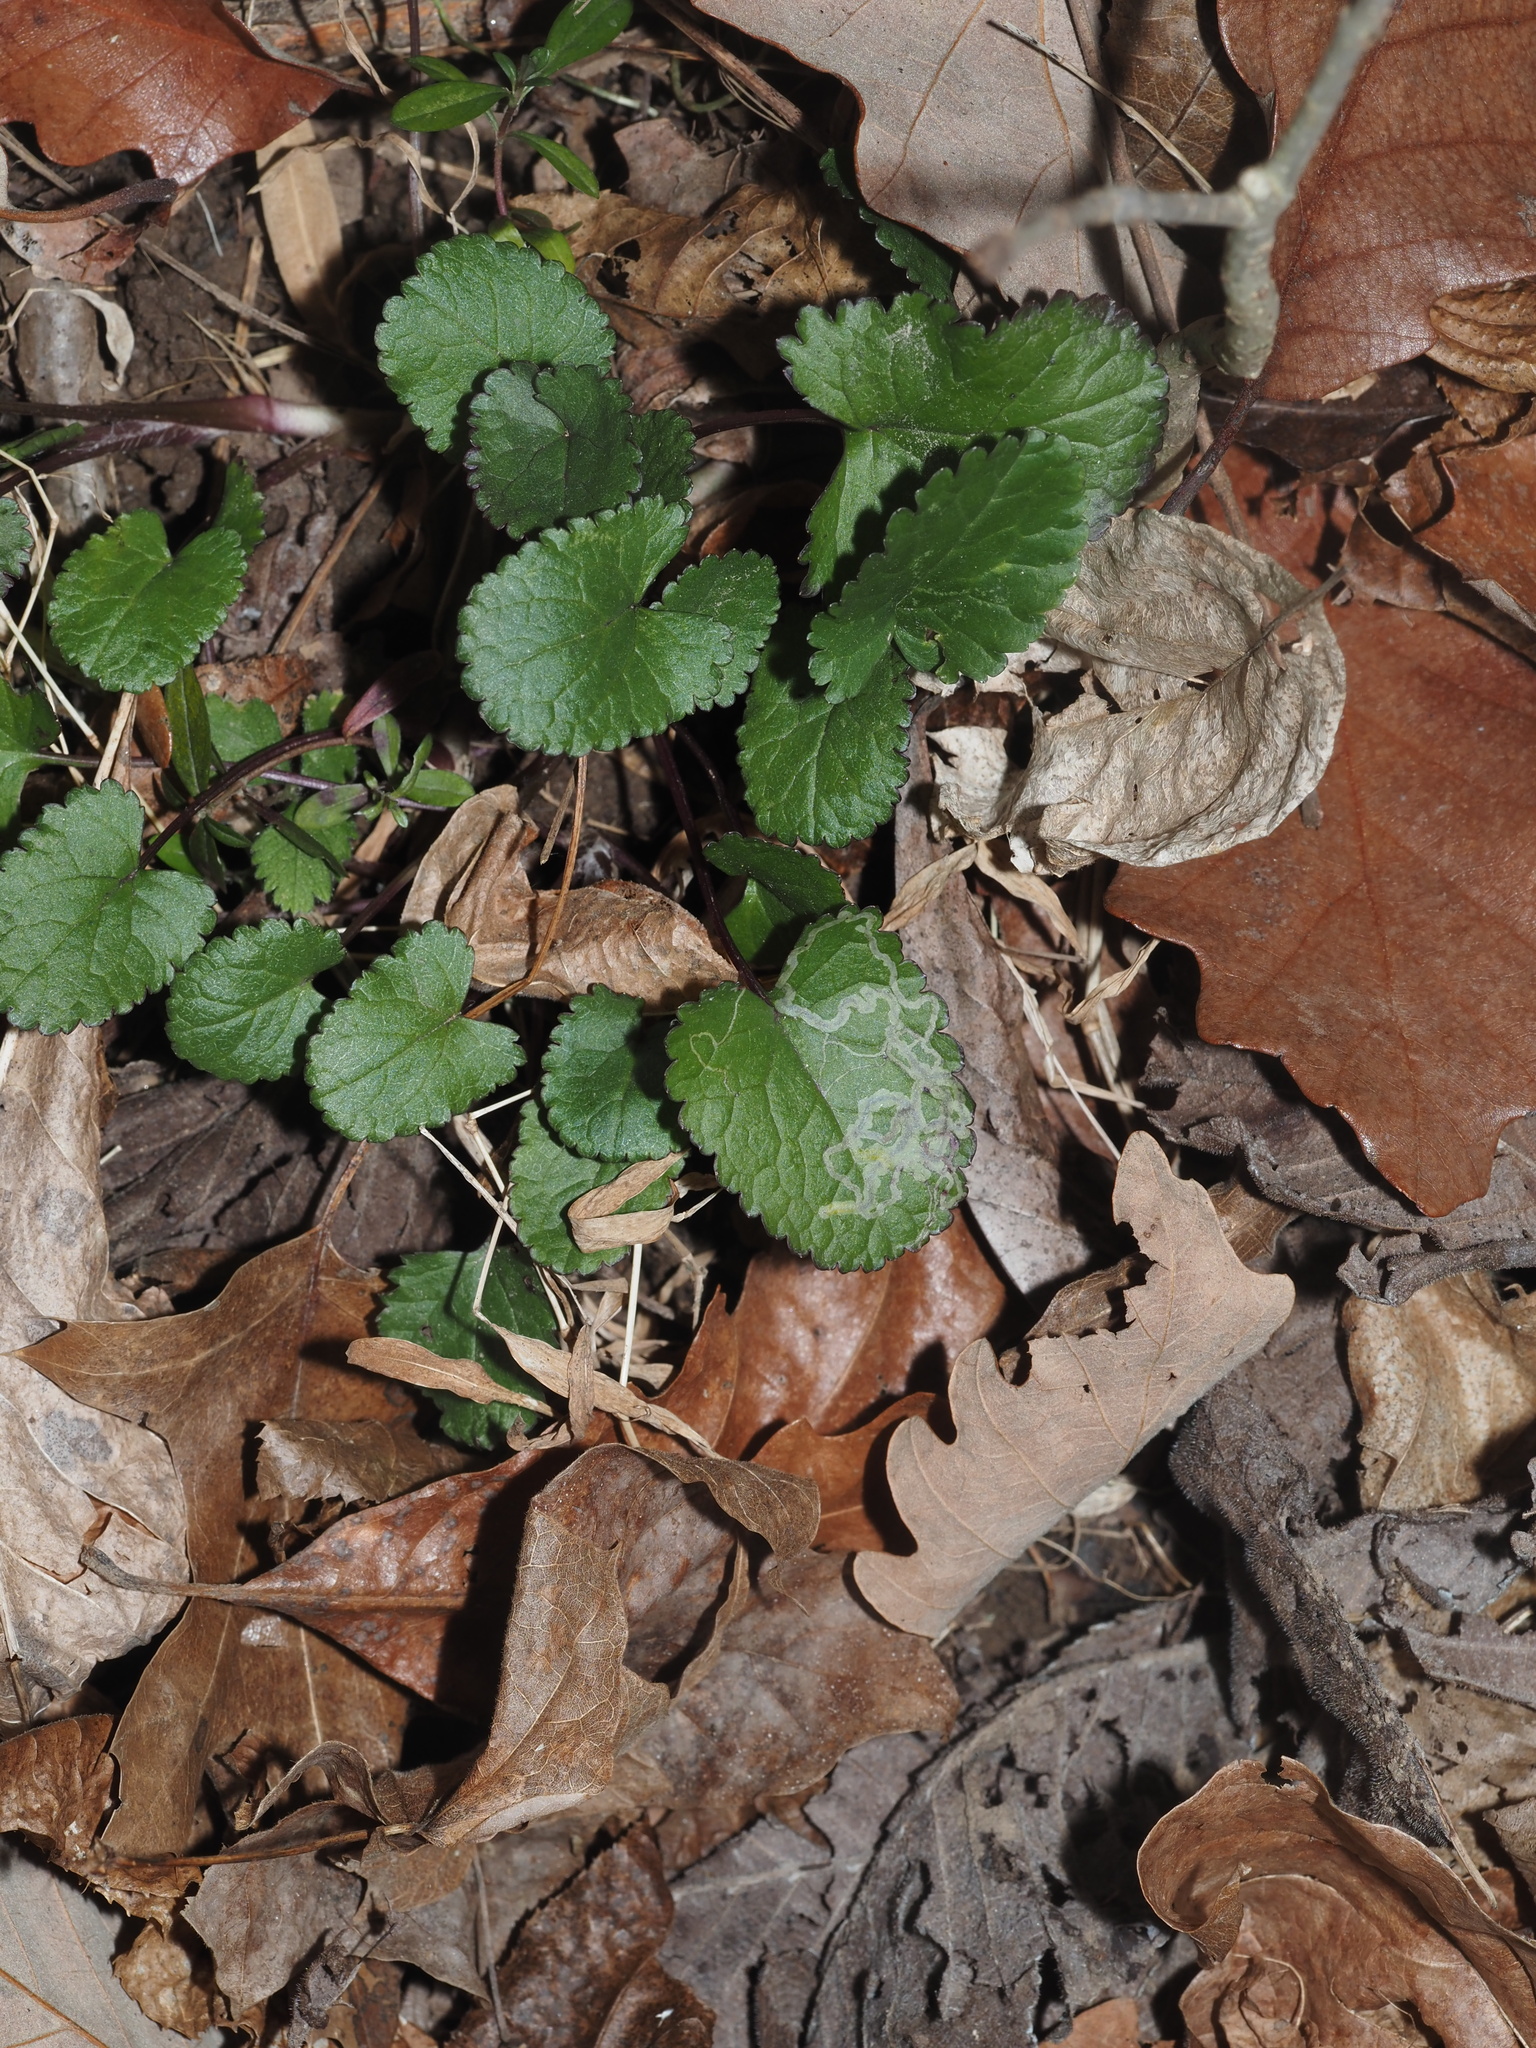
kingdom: Plantae
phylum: Tracheophyta
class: Magnoliopsida
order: Asterales
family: Asteraceae
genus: Packera
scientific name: Packera aurea
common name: Golden groundsel
